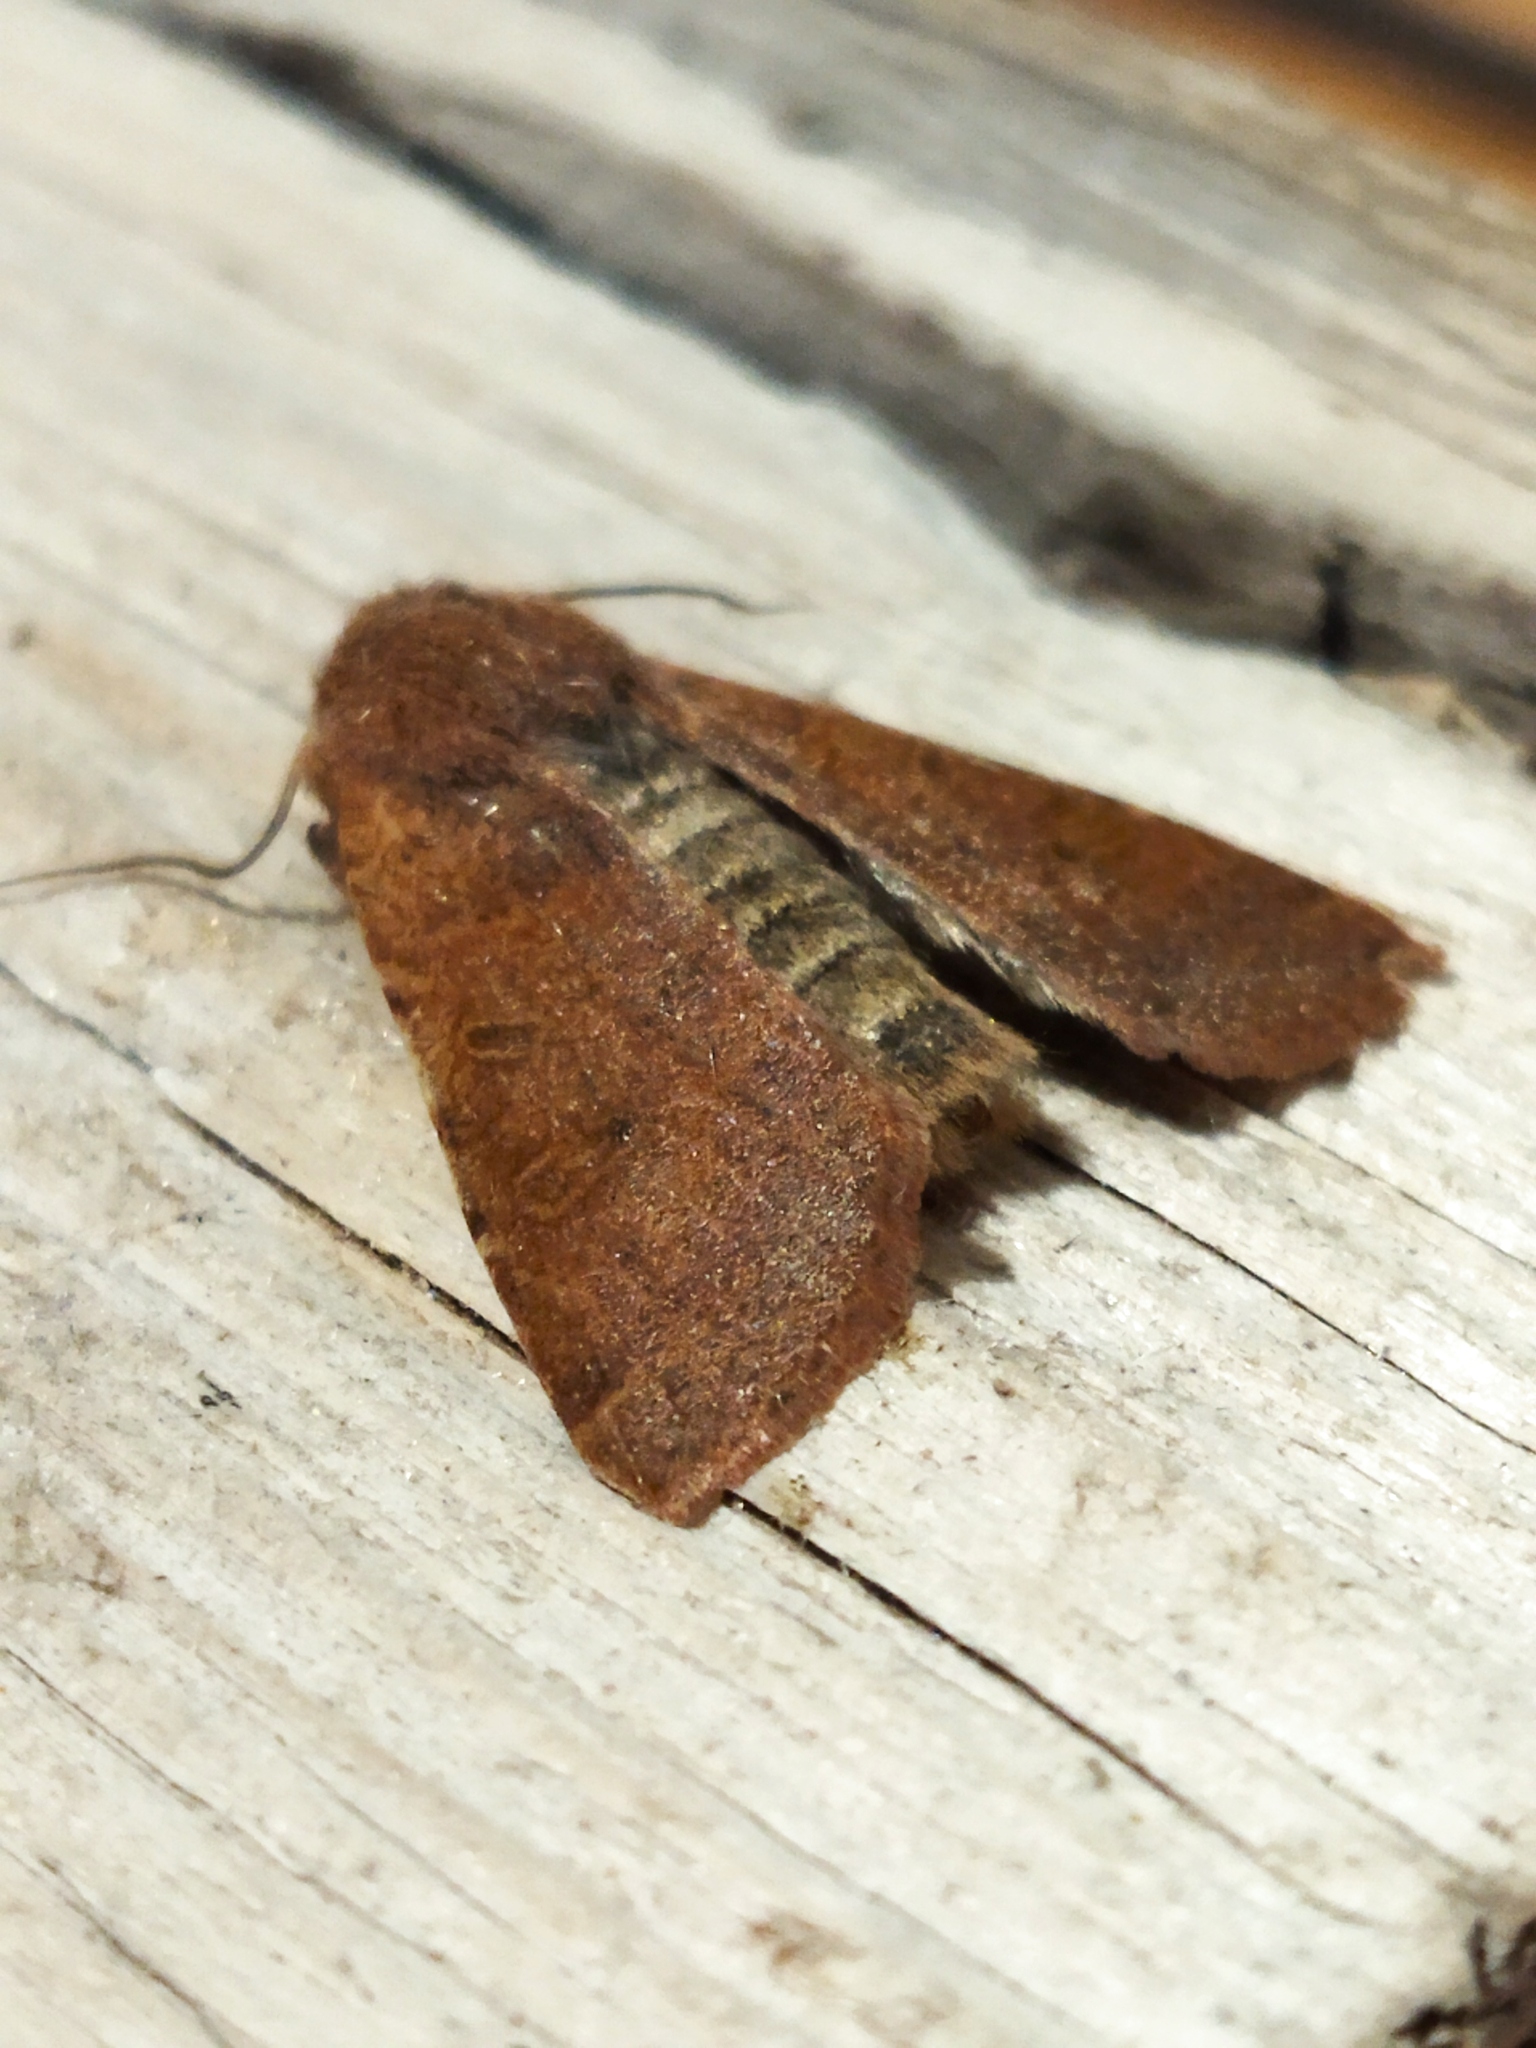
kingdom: Animalia
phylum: Arthropoda
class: Insecta
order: Lepidoptera
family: Noctuidae
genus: Agrochola
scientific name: Agrochola lychnidis
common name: Beaded chestnut
